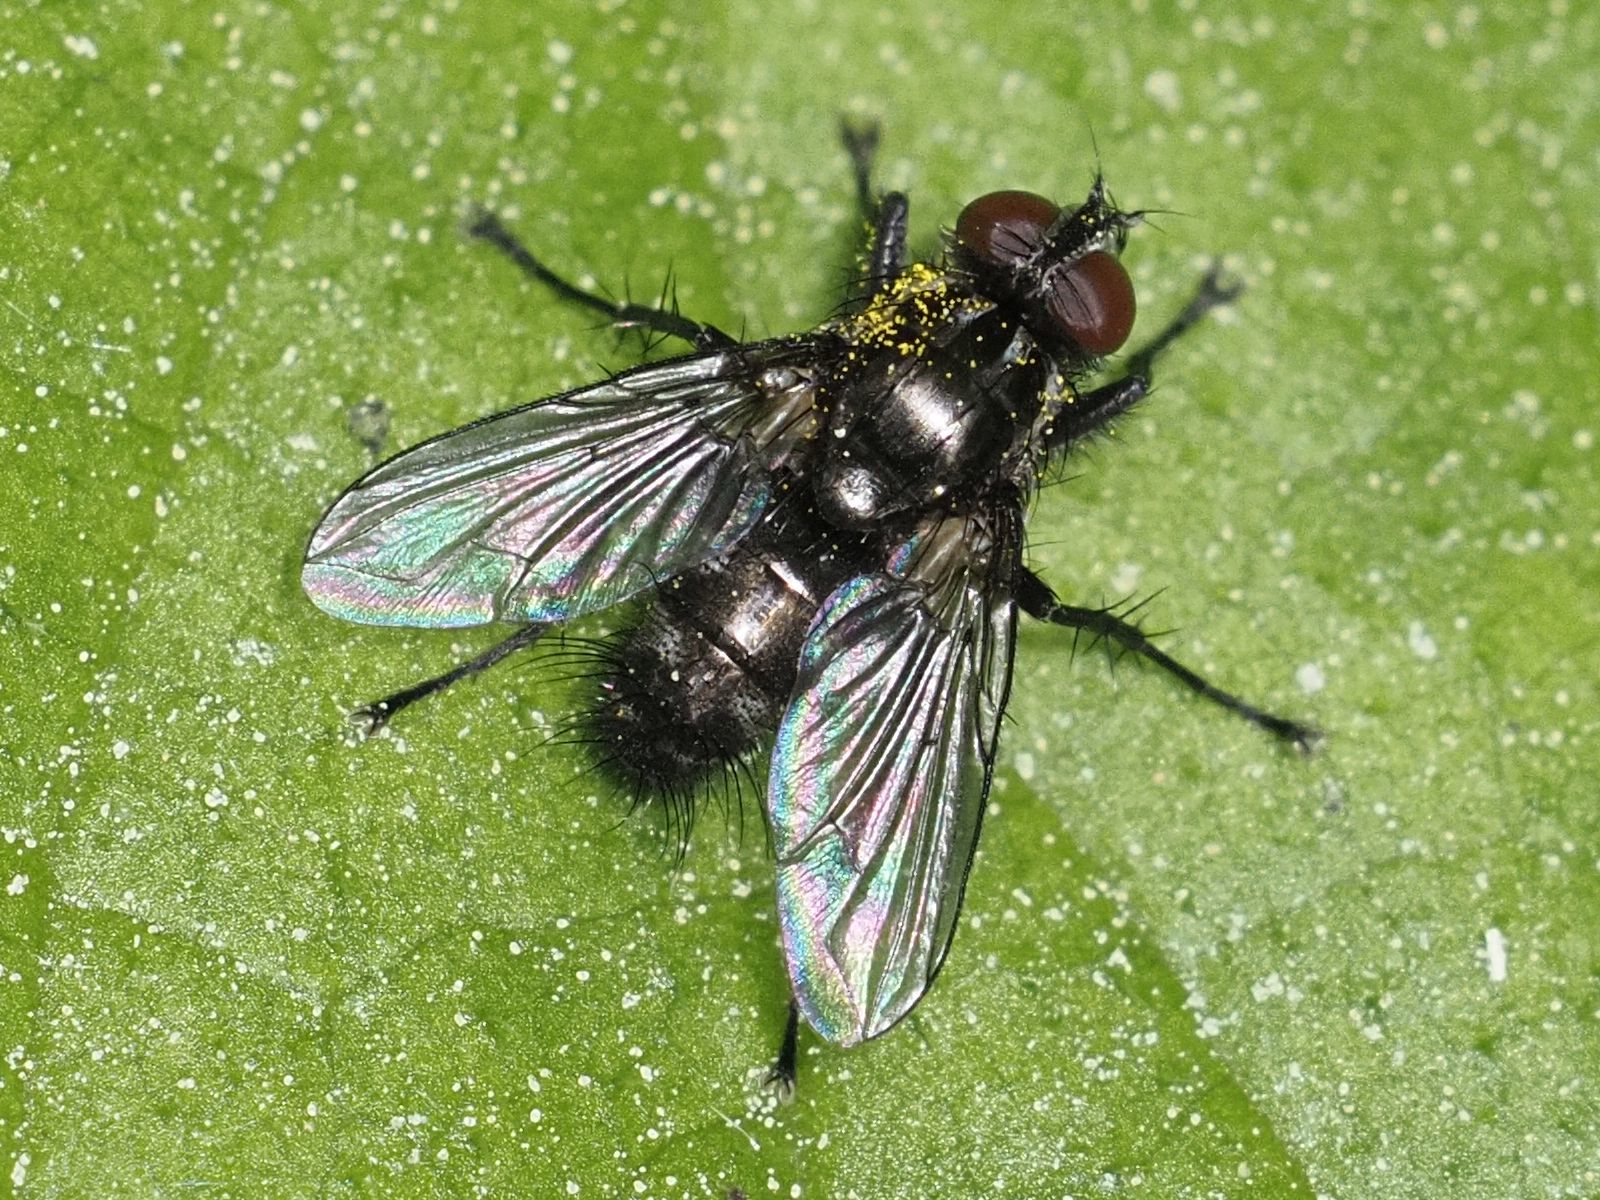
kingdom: Animalia
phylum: Arthropoda
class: Insecta
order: Diptera
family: Calliphoridae
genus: Rhinomorinia
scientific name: Rhinomorinia sarcophagina
